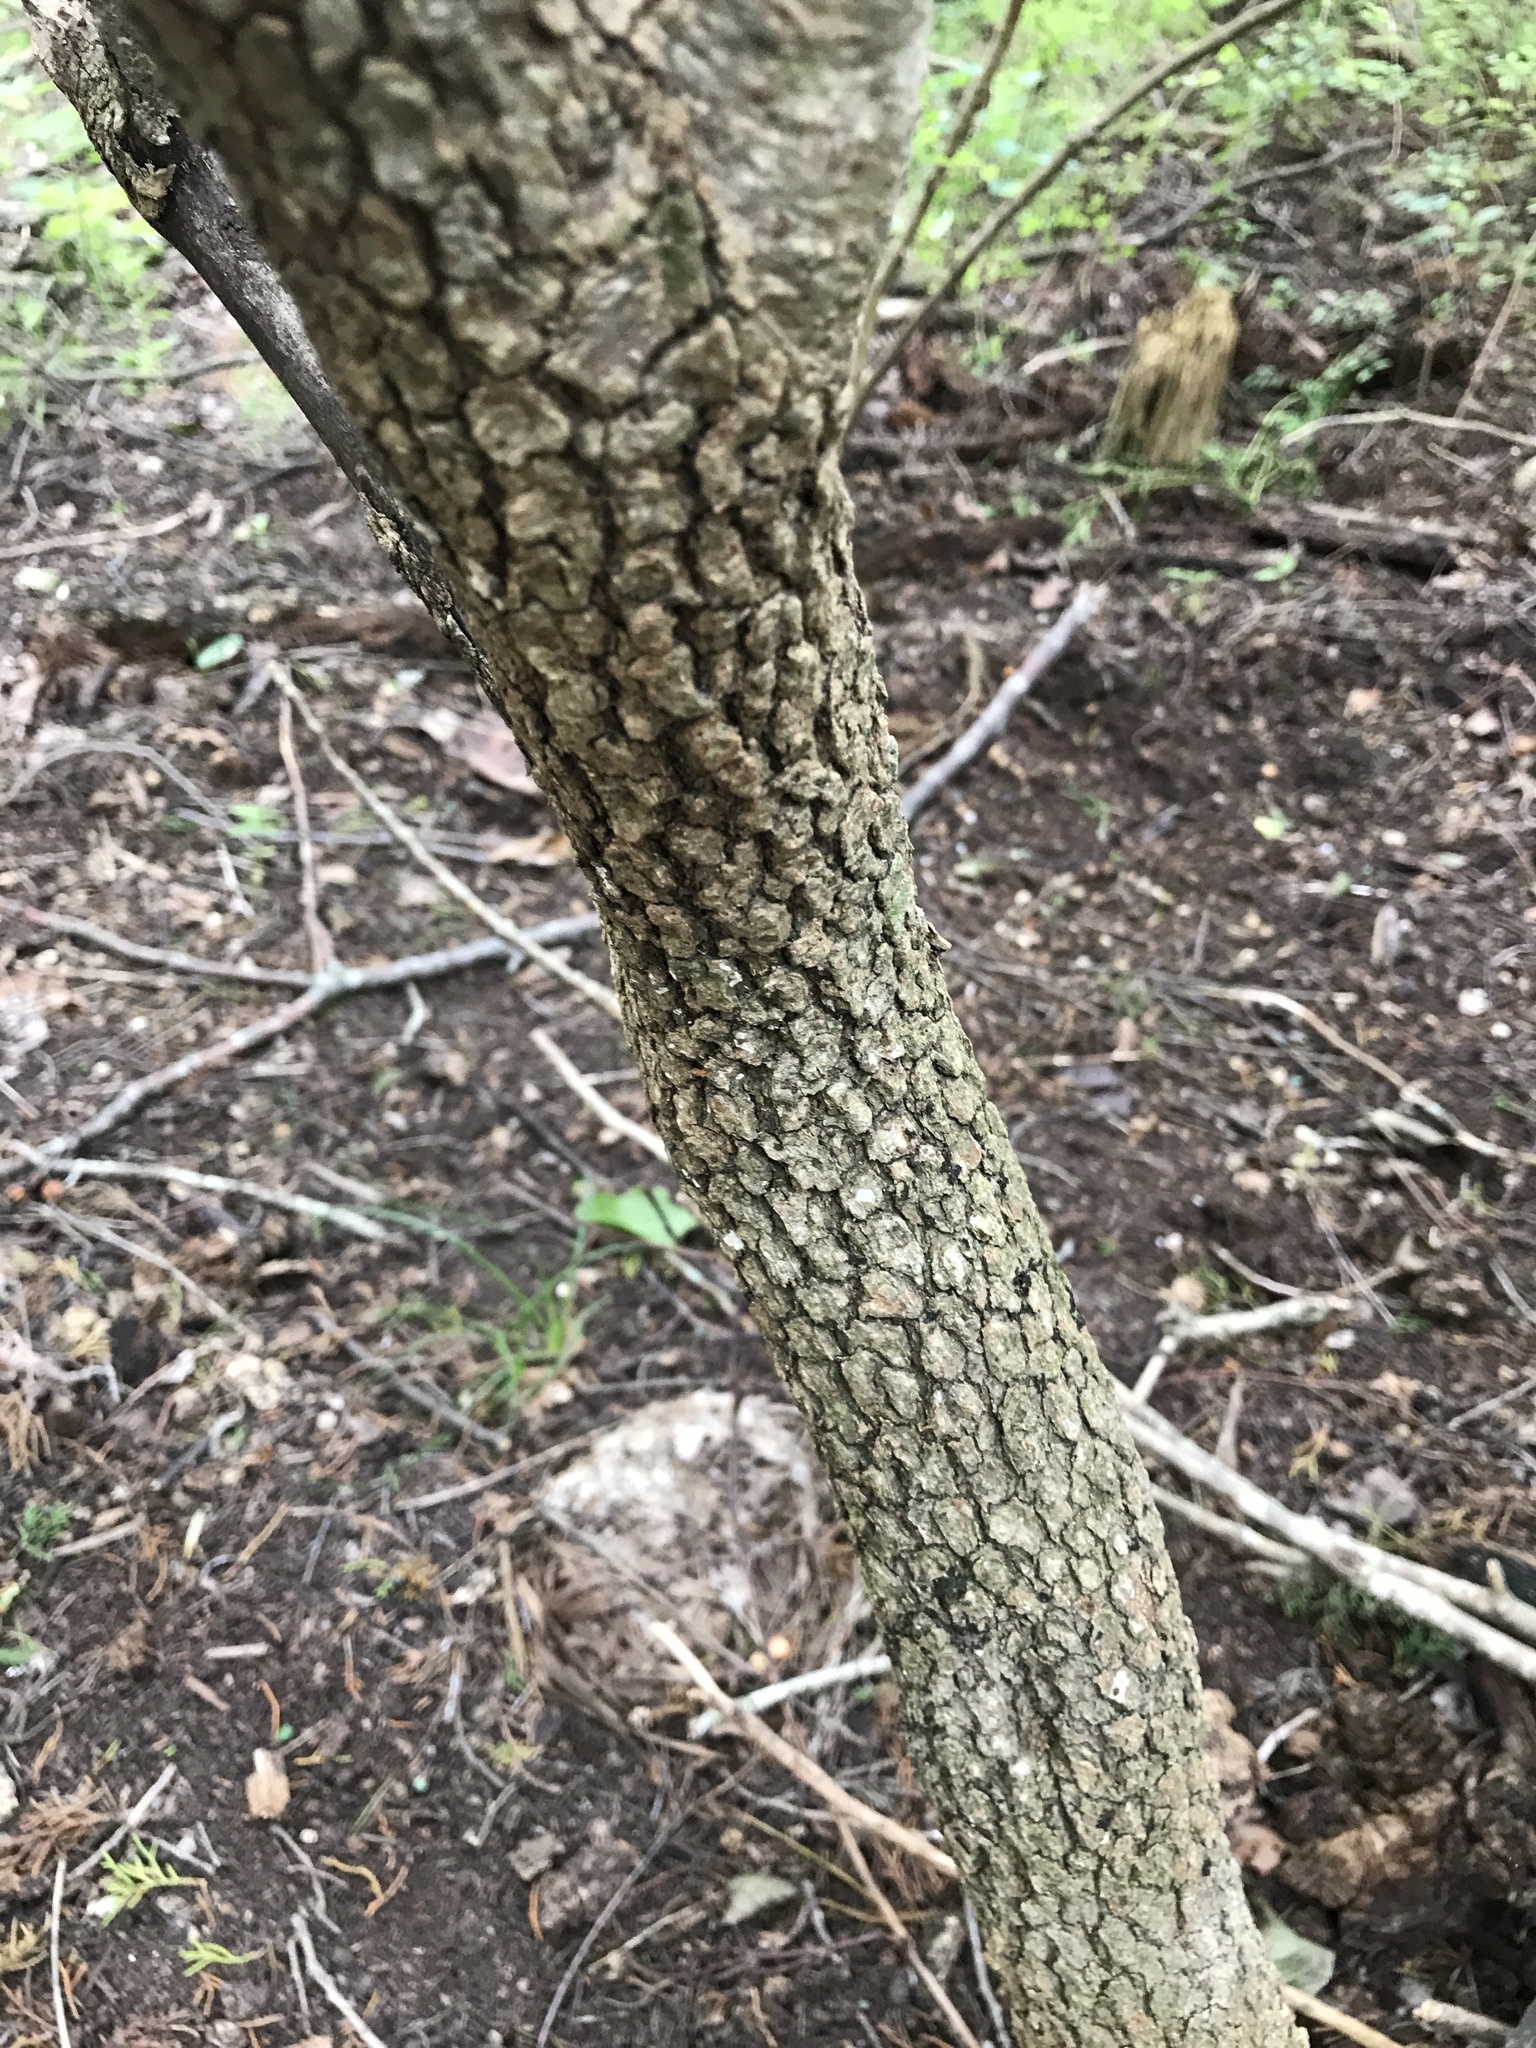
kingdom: Plantae
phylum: Tracheophyta
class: Magnoliopsida
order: Dipsacales
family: Viburnaceae
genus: Viburnum
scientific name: Viburnum rufidulum
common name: Blue haw
